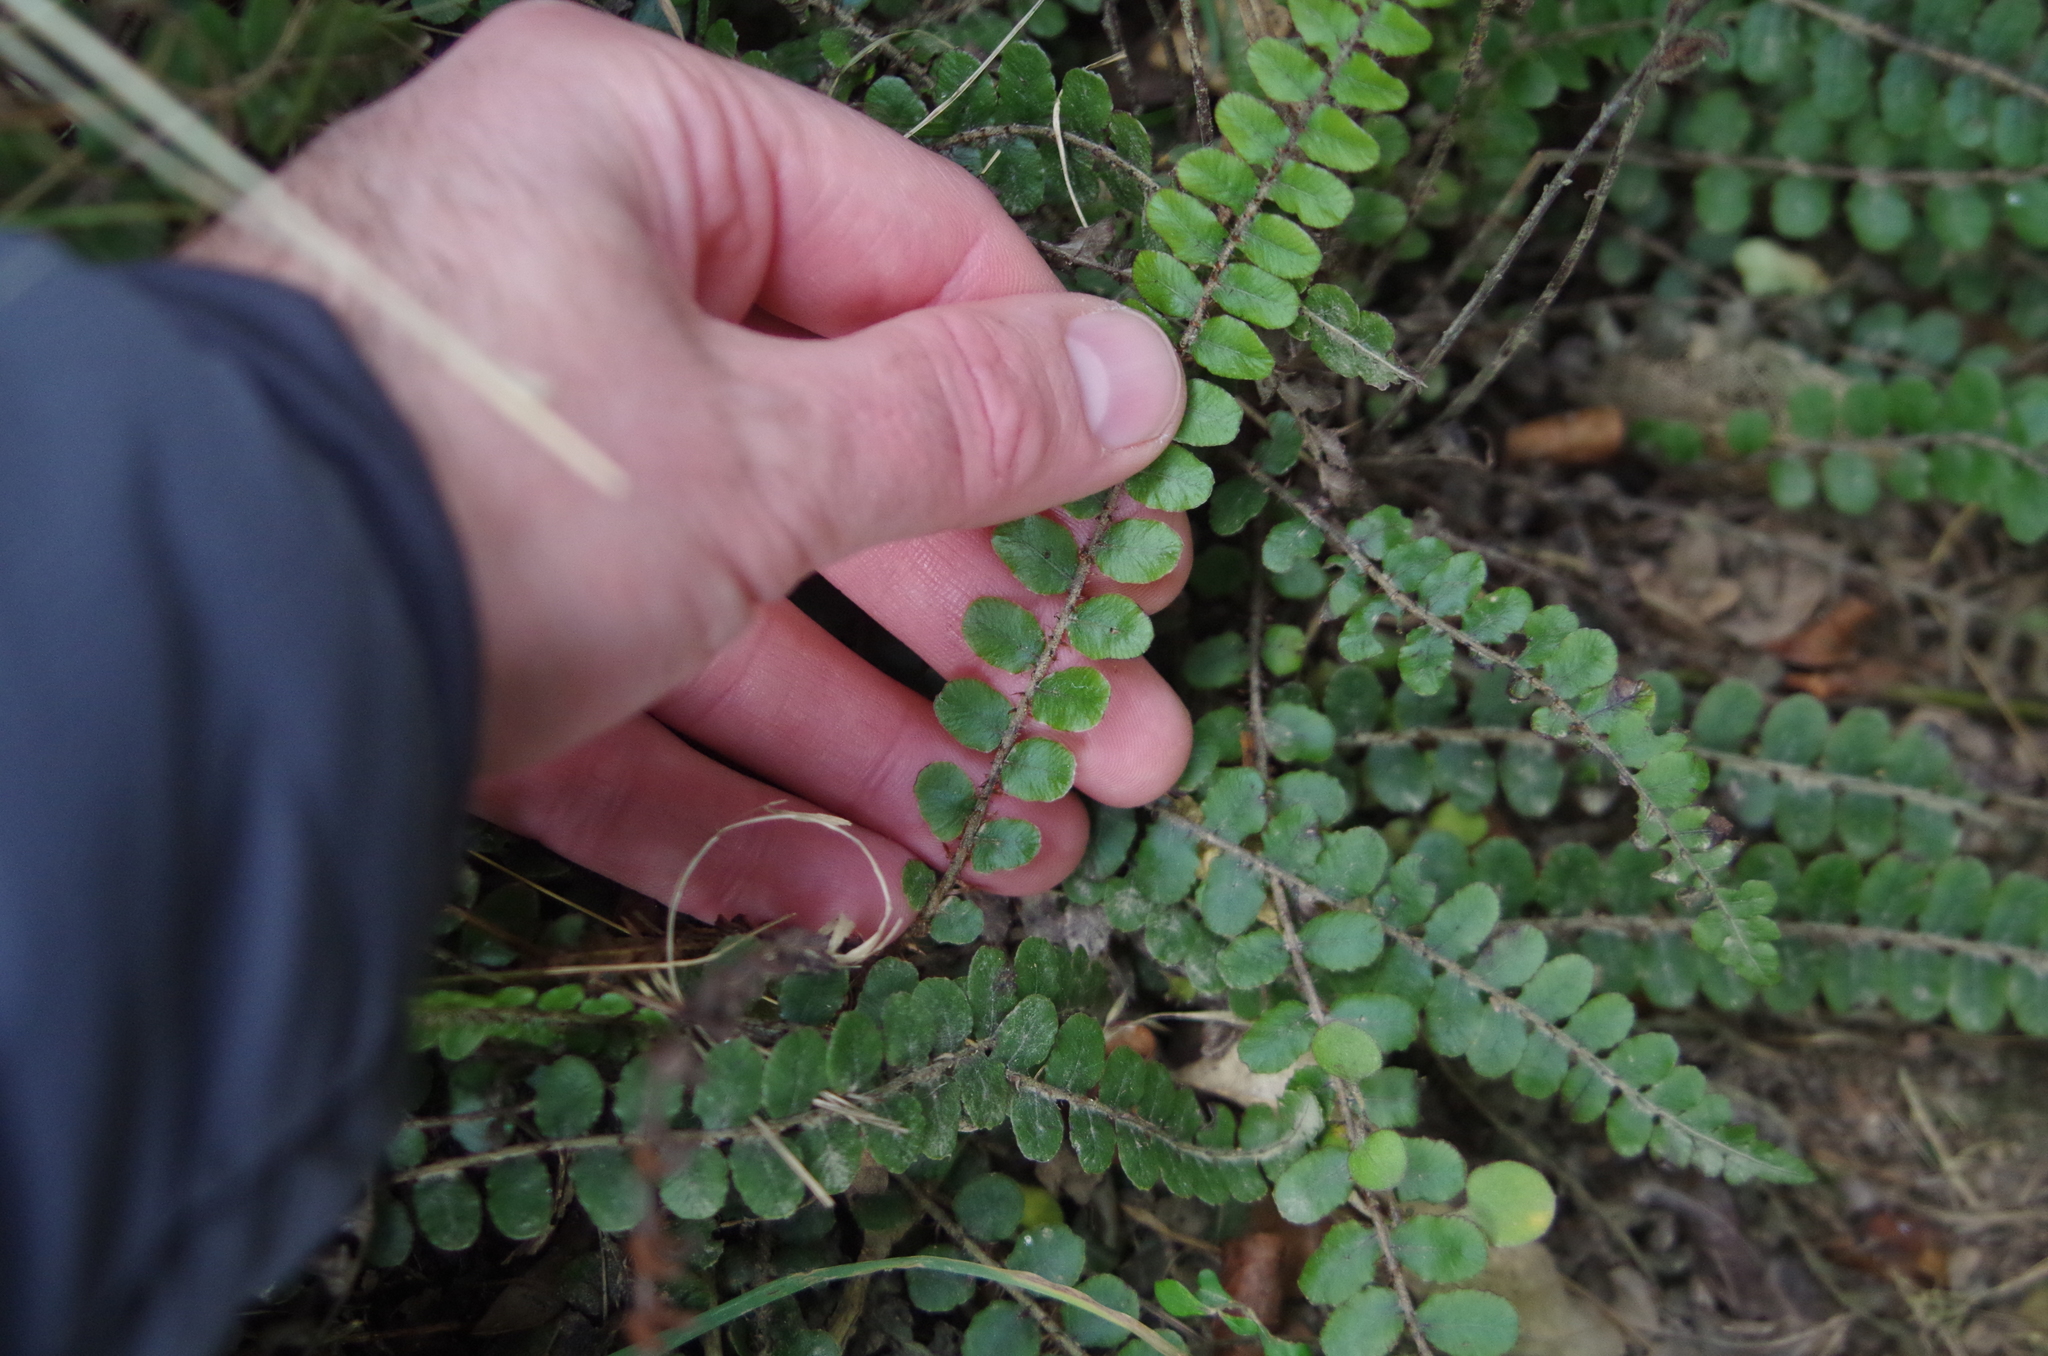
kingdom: Plantae
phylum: Tracheophyta
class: Polypodiopsida
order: Polypodiales
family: Blechnaceae
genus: Cranfillia
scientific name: Cranfillia fluviatilis
